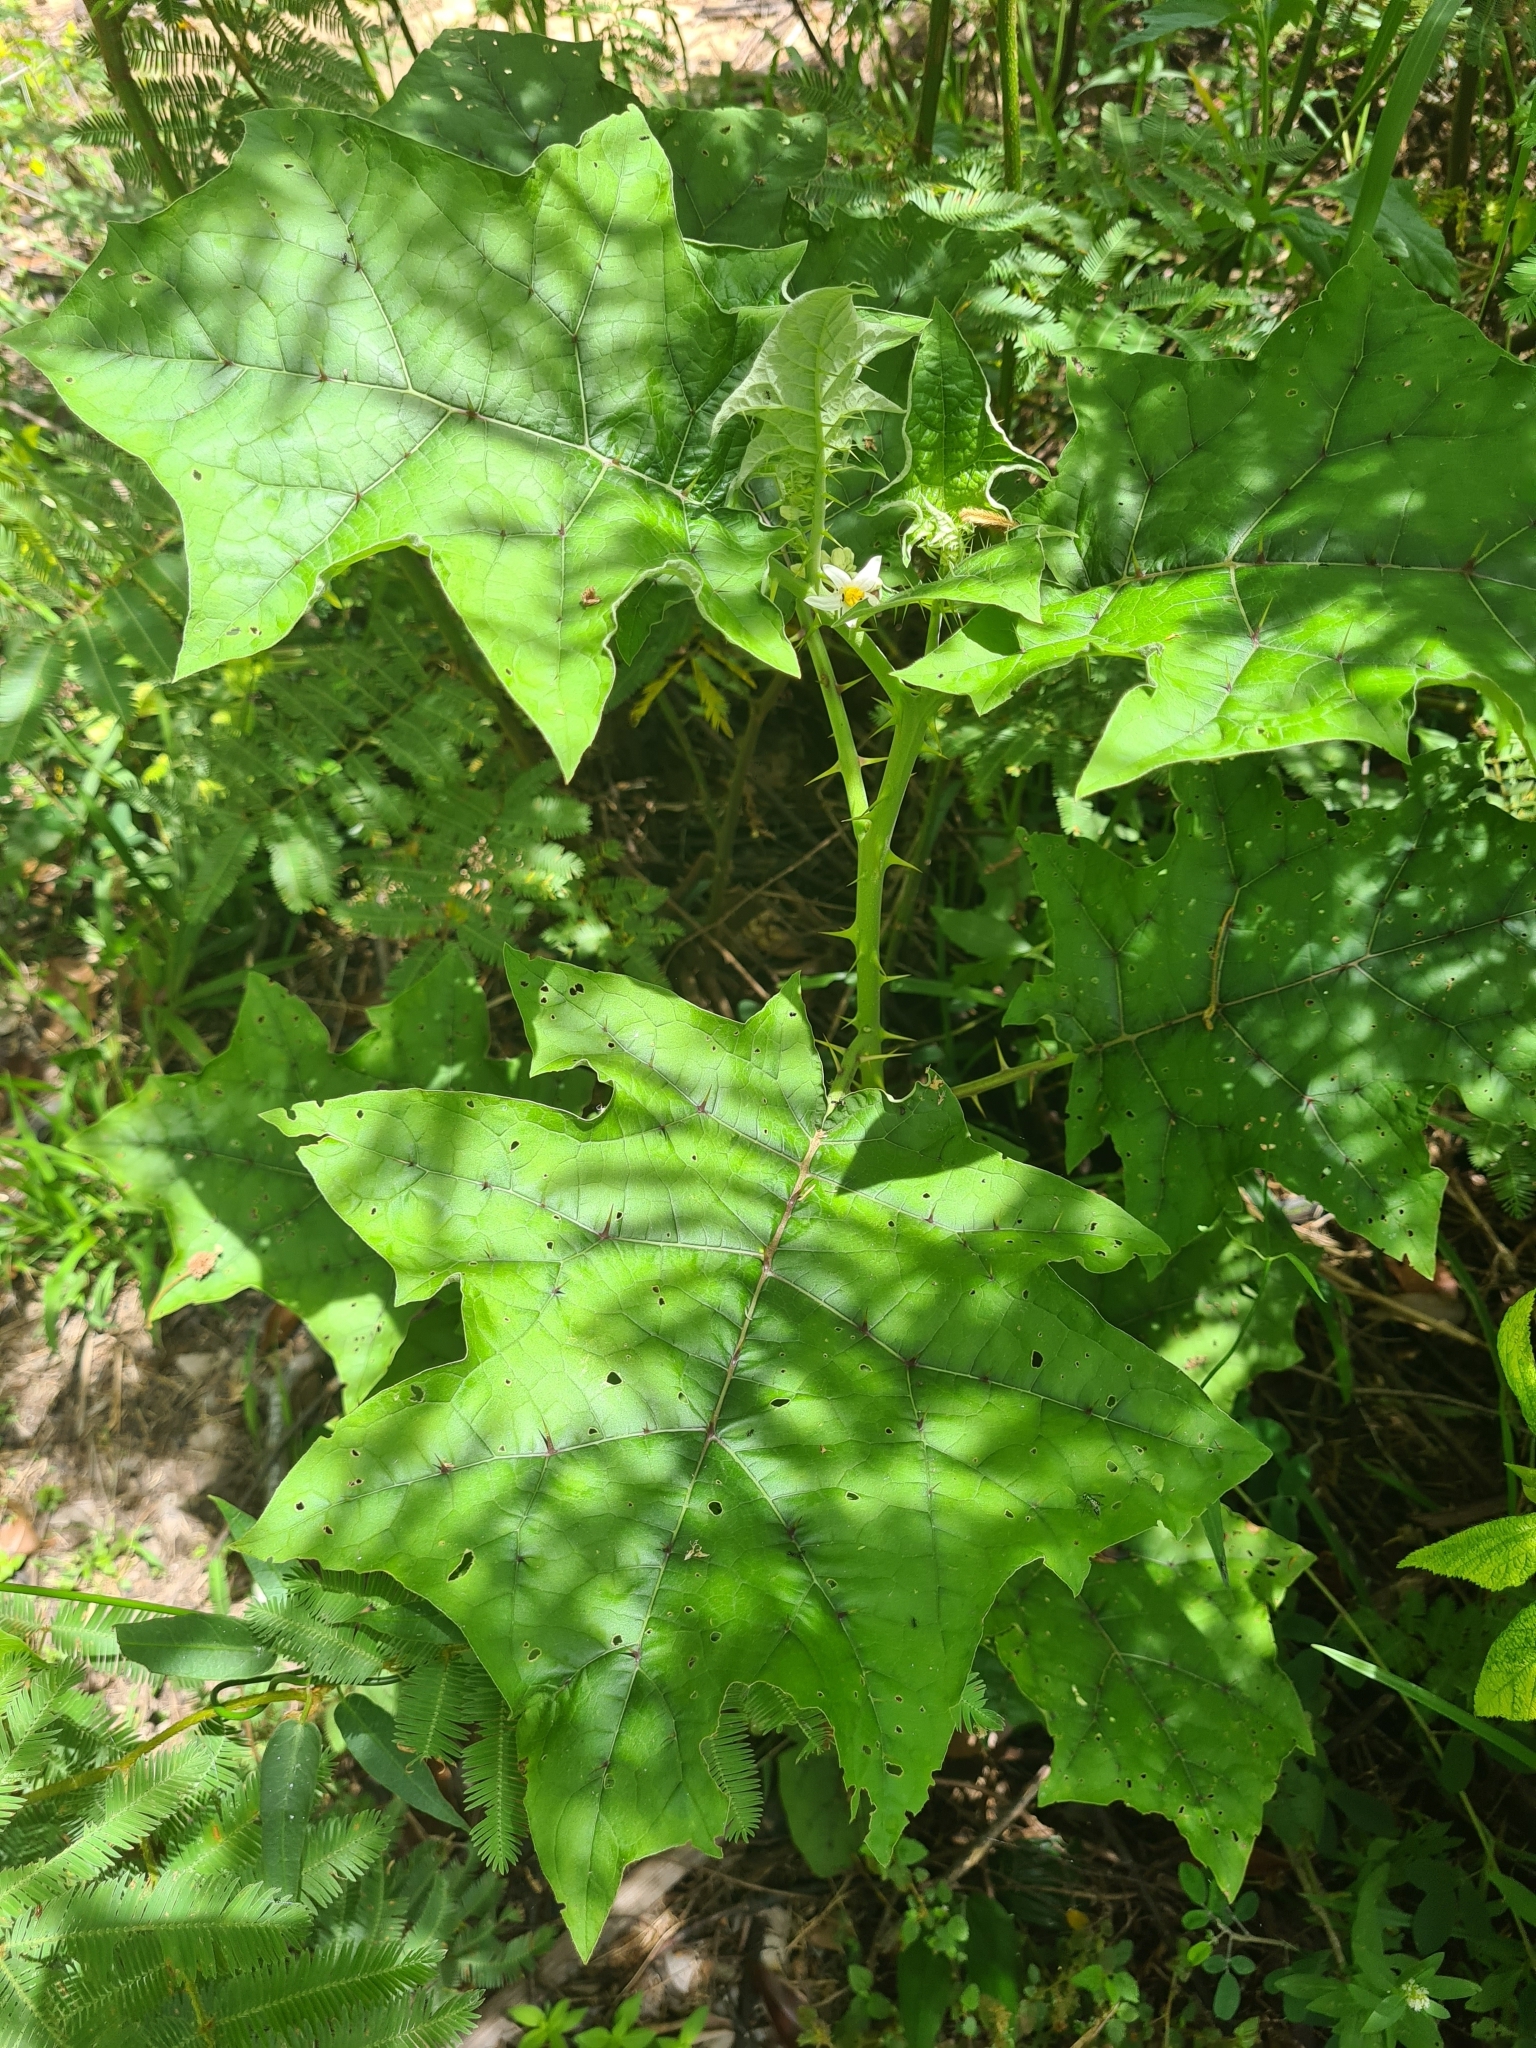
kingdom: Plantae
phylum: Tracheophyta
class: Magnoliopsida
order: Solanales
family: Solanaceae
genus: Solanum
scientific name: Solanum
